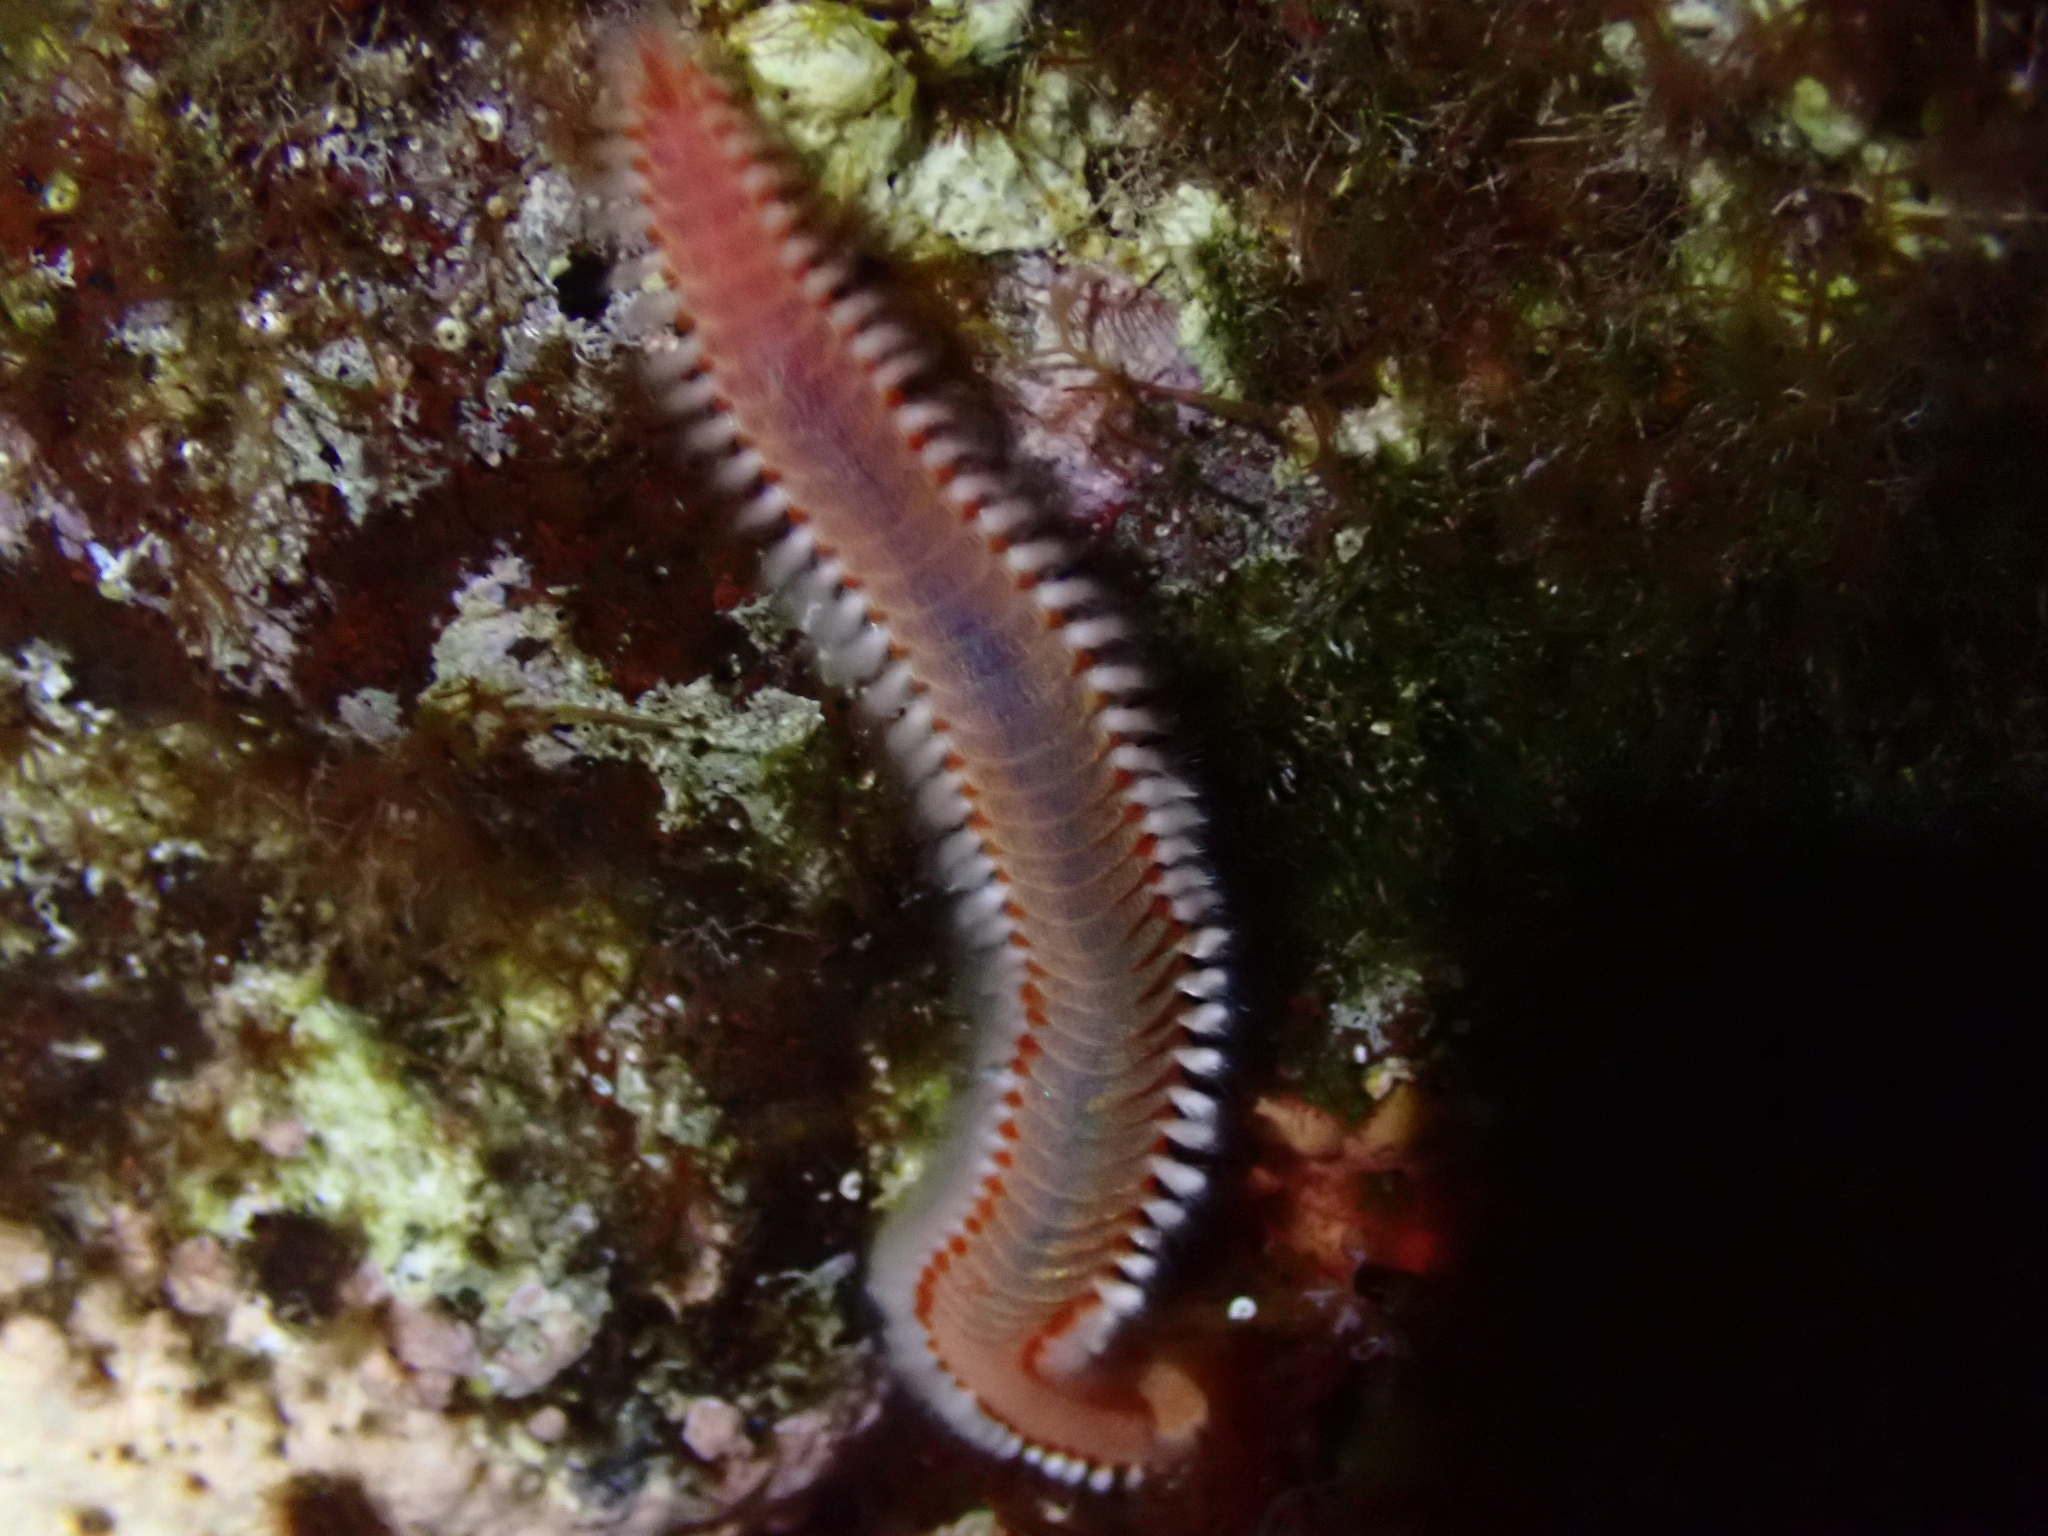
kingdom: Animalia
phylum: Annelida
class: Polychaeta
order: Amphinomida
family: Amphinomidae
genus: Eurythoe
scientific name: Eurythoe complanata
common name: Fireworm
